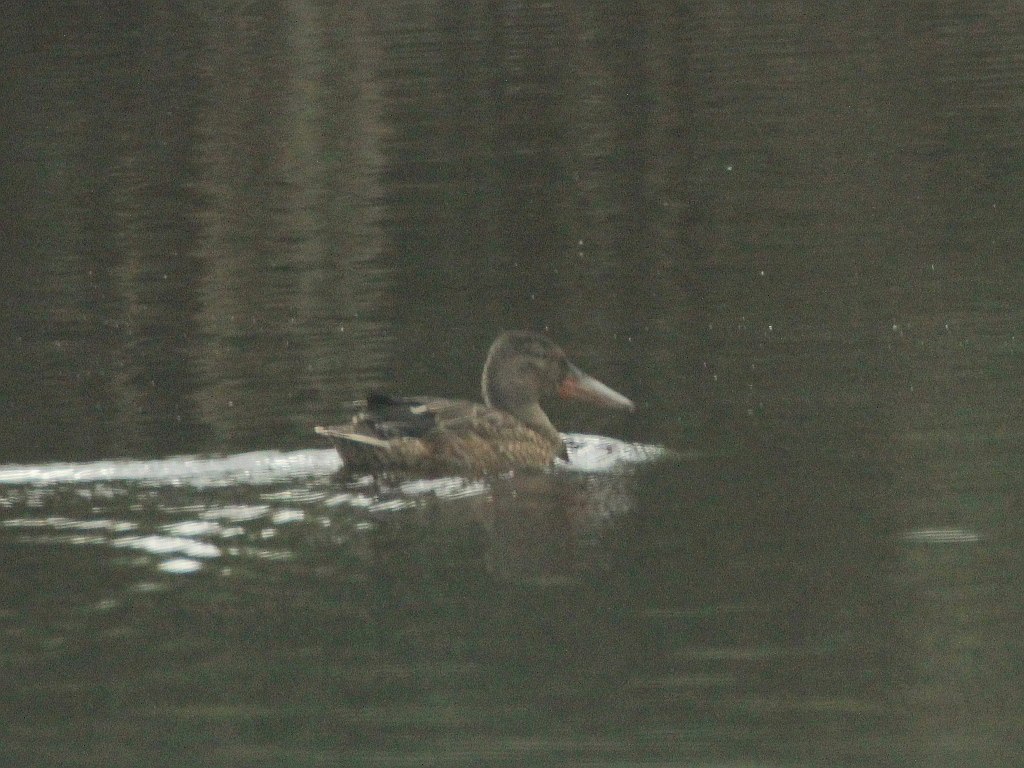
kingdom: Animalia
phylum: Chordata
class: Aves
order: Anseriformes
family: Anatidae
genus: Spatula
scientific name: Spatula clypeata
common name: Northern shoveler
